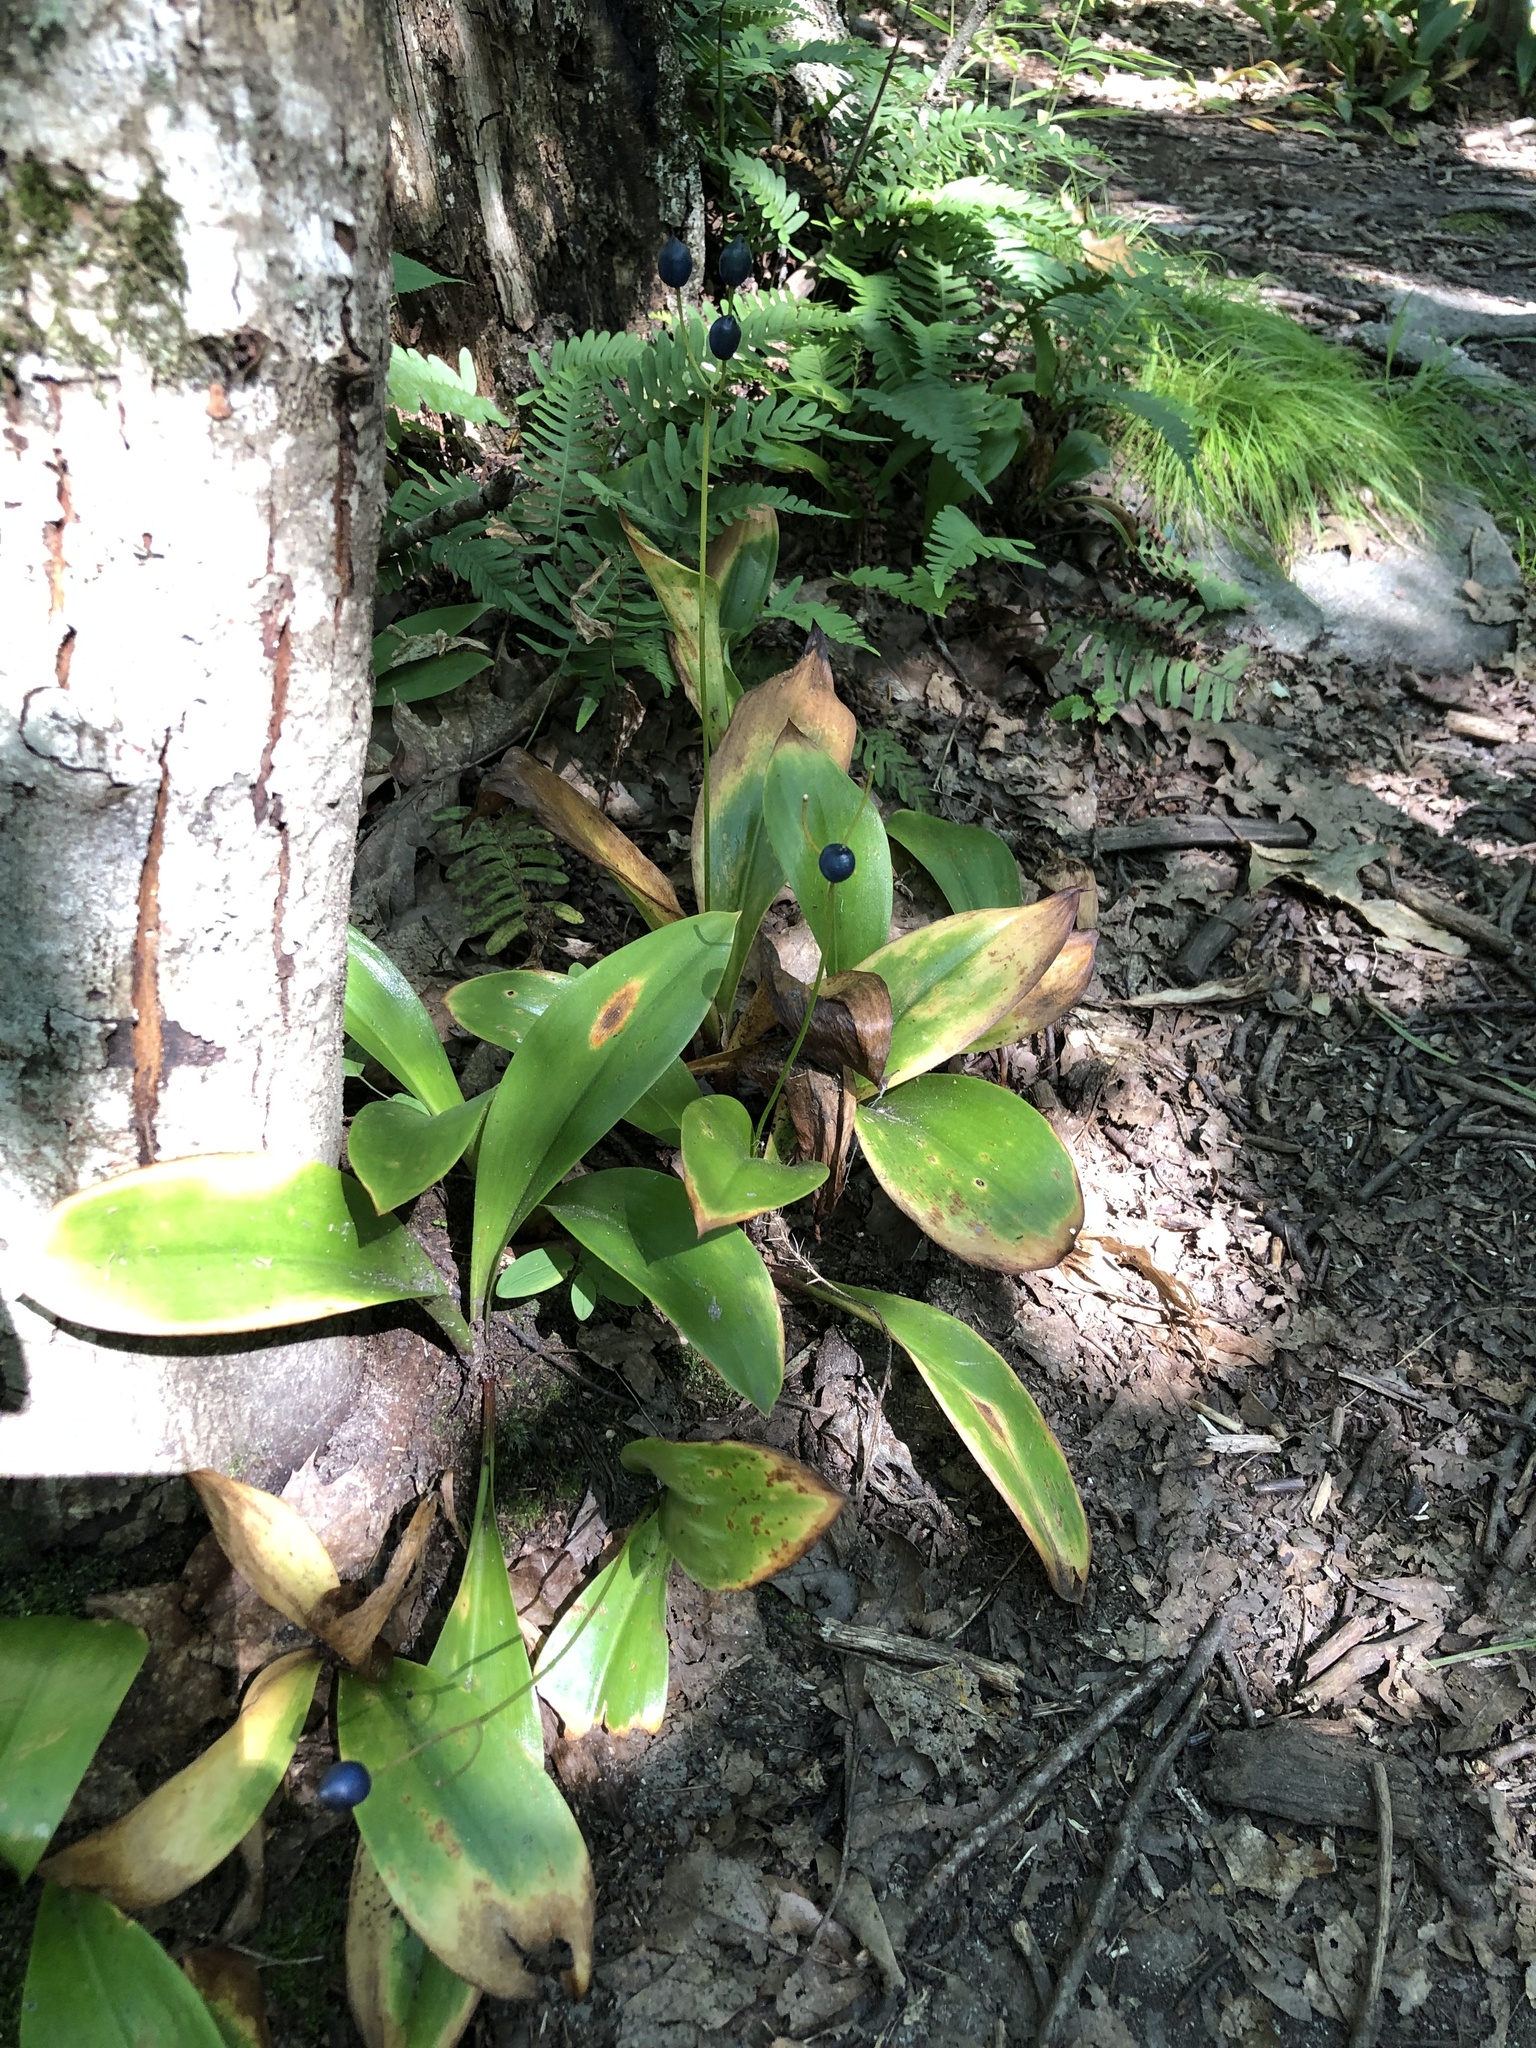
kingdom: Plantae
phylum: Tracheophyta
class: Liliopsida
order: Liliales
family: Liliaceae
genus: Clintonia
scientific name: Clintonia borealis
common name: Yellow clintonia
